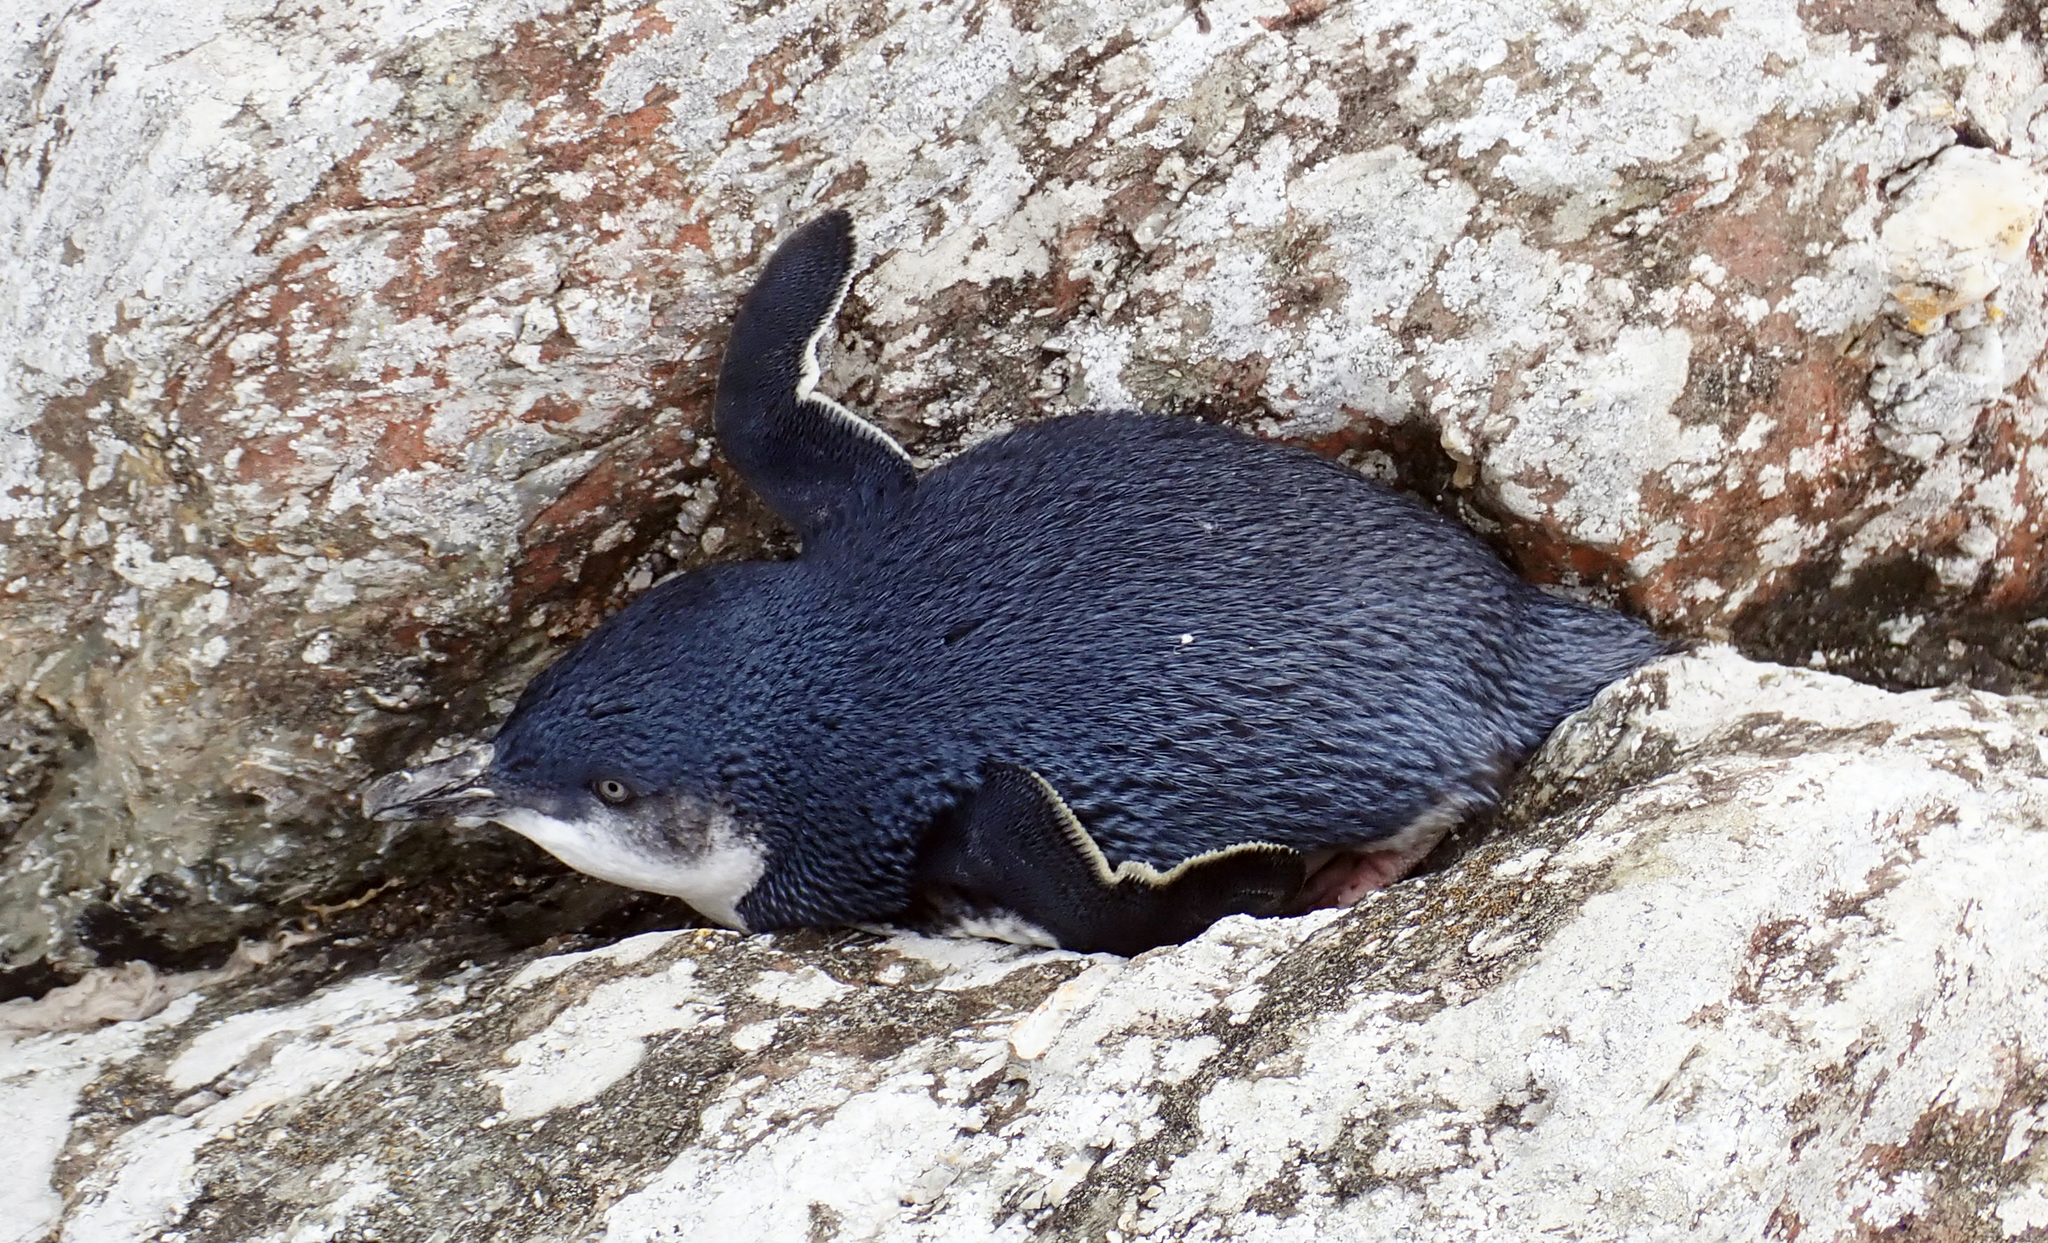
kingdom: Animalia
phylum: Chordata
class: Aves
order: Sphenisciformes
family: Spheniscidae
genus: Eudyptula
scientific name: Eudyptula minor
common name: Little penguin
